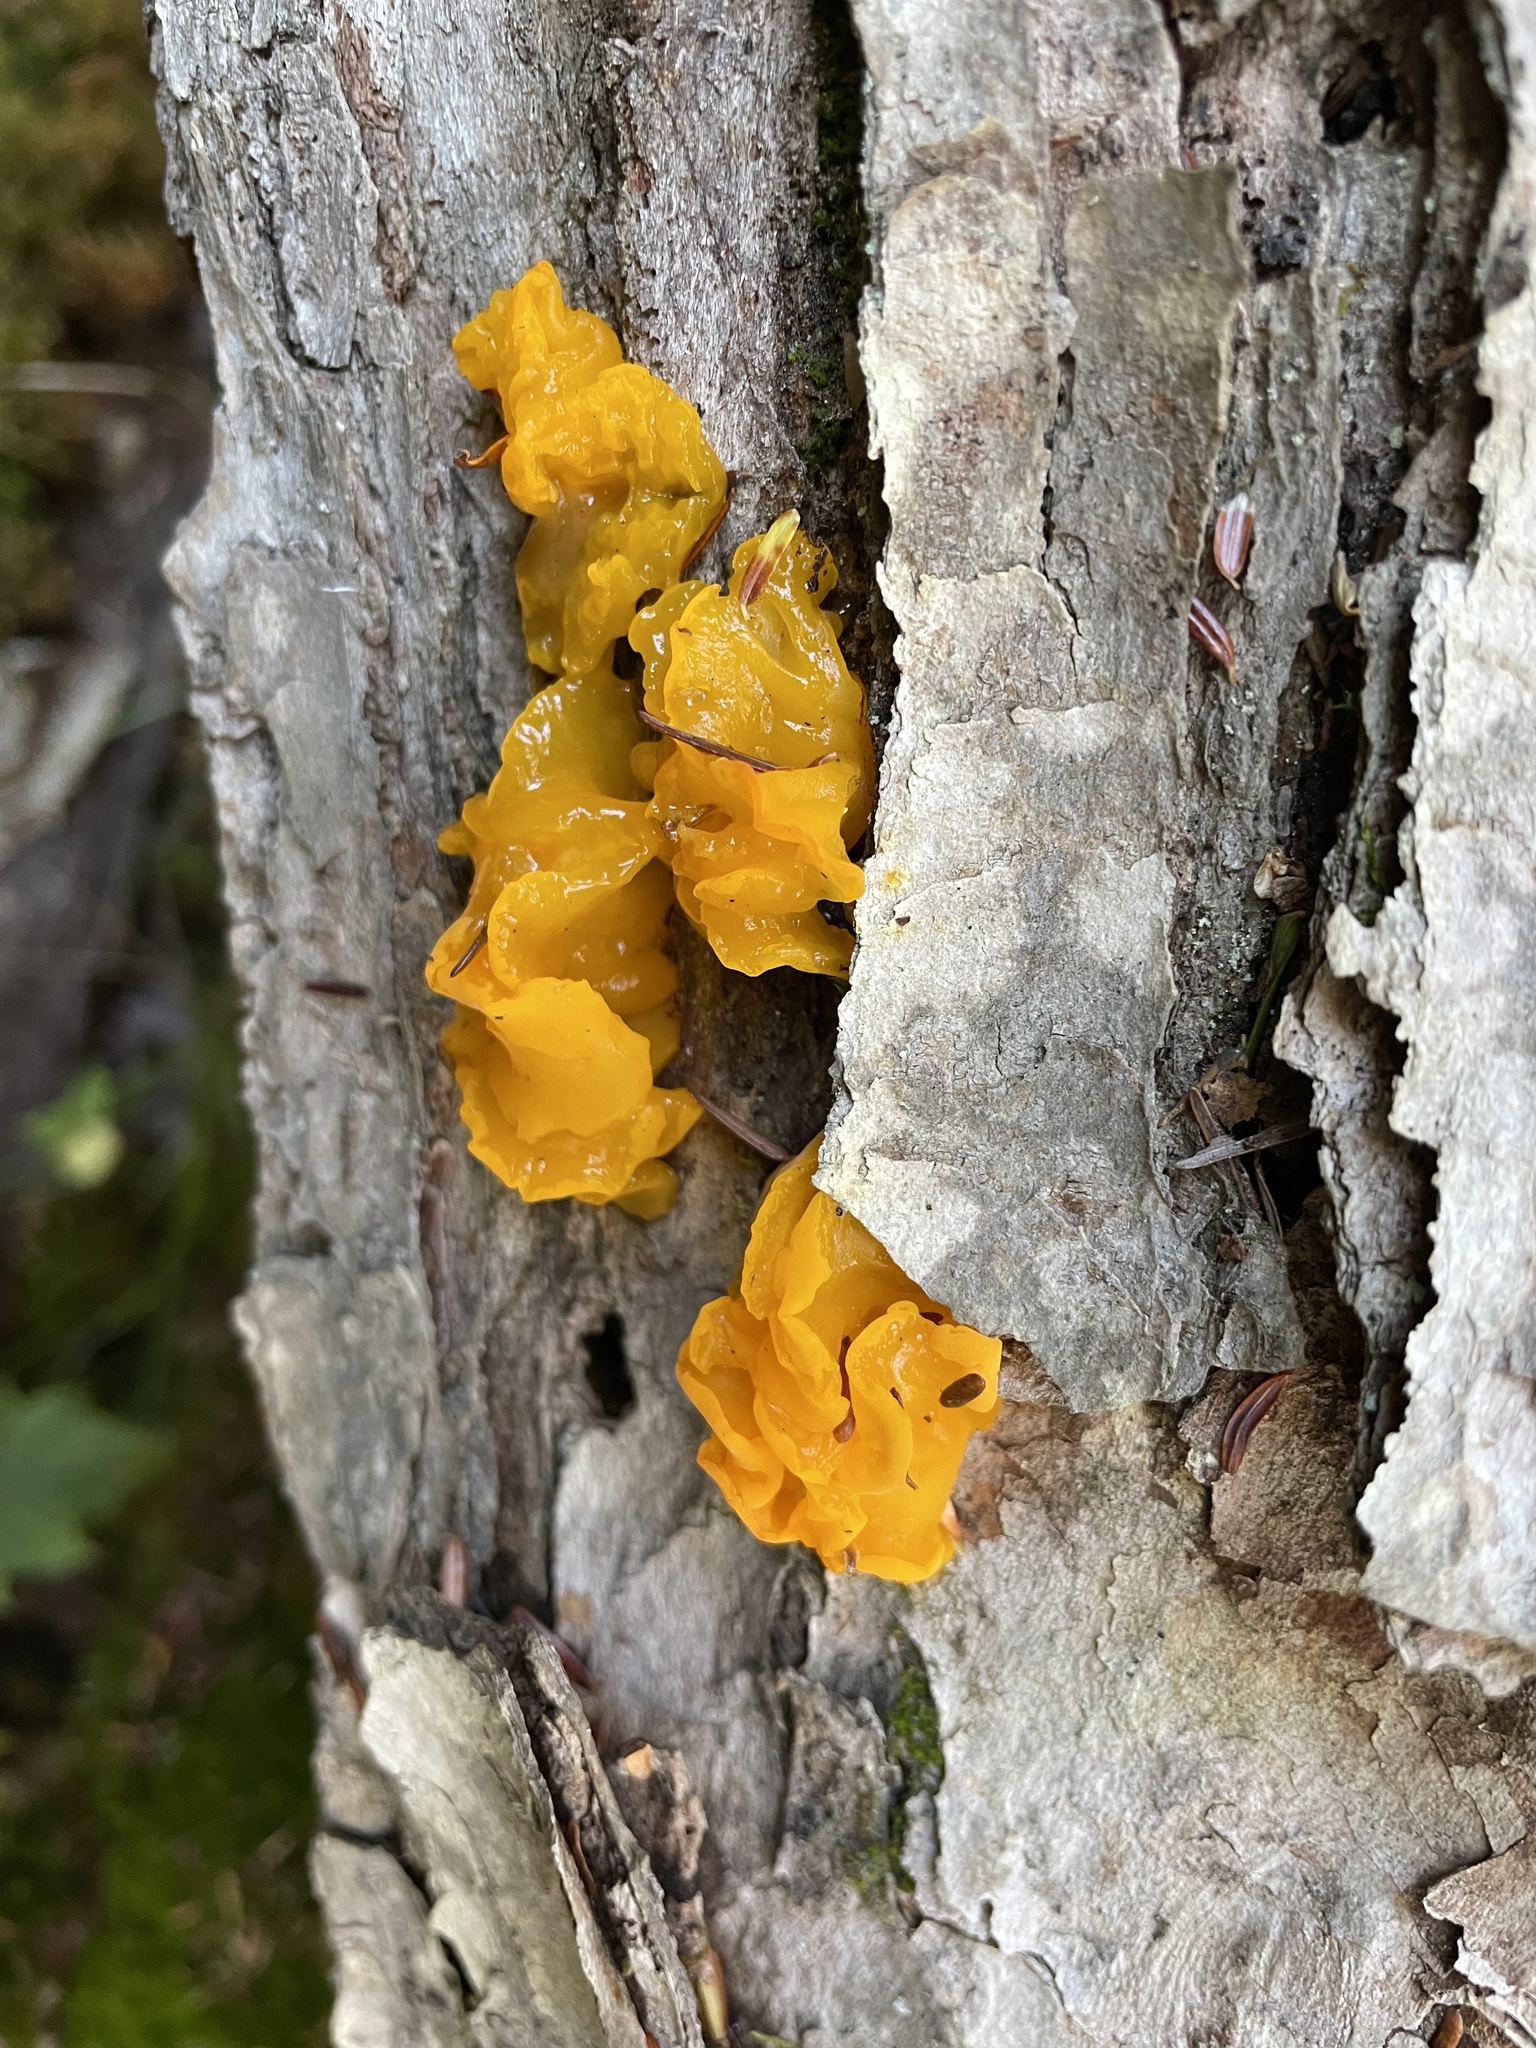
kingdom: Fungi
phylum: Basidiomycota
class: Dacrymycetes
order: Dacrymycetales
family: Dacrymycetaceae
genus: Dacrymyces
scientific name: Dacrymyces chrysospermus
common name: Orange jelly spot
